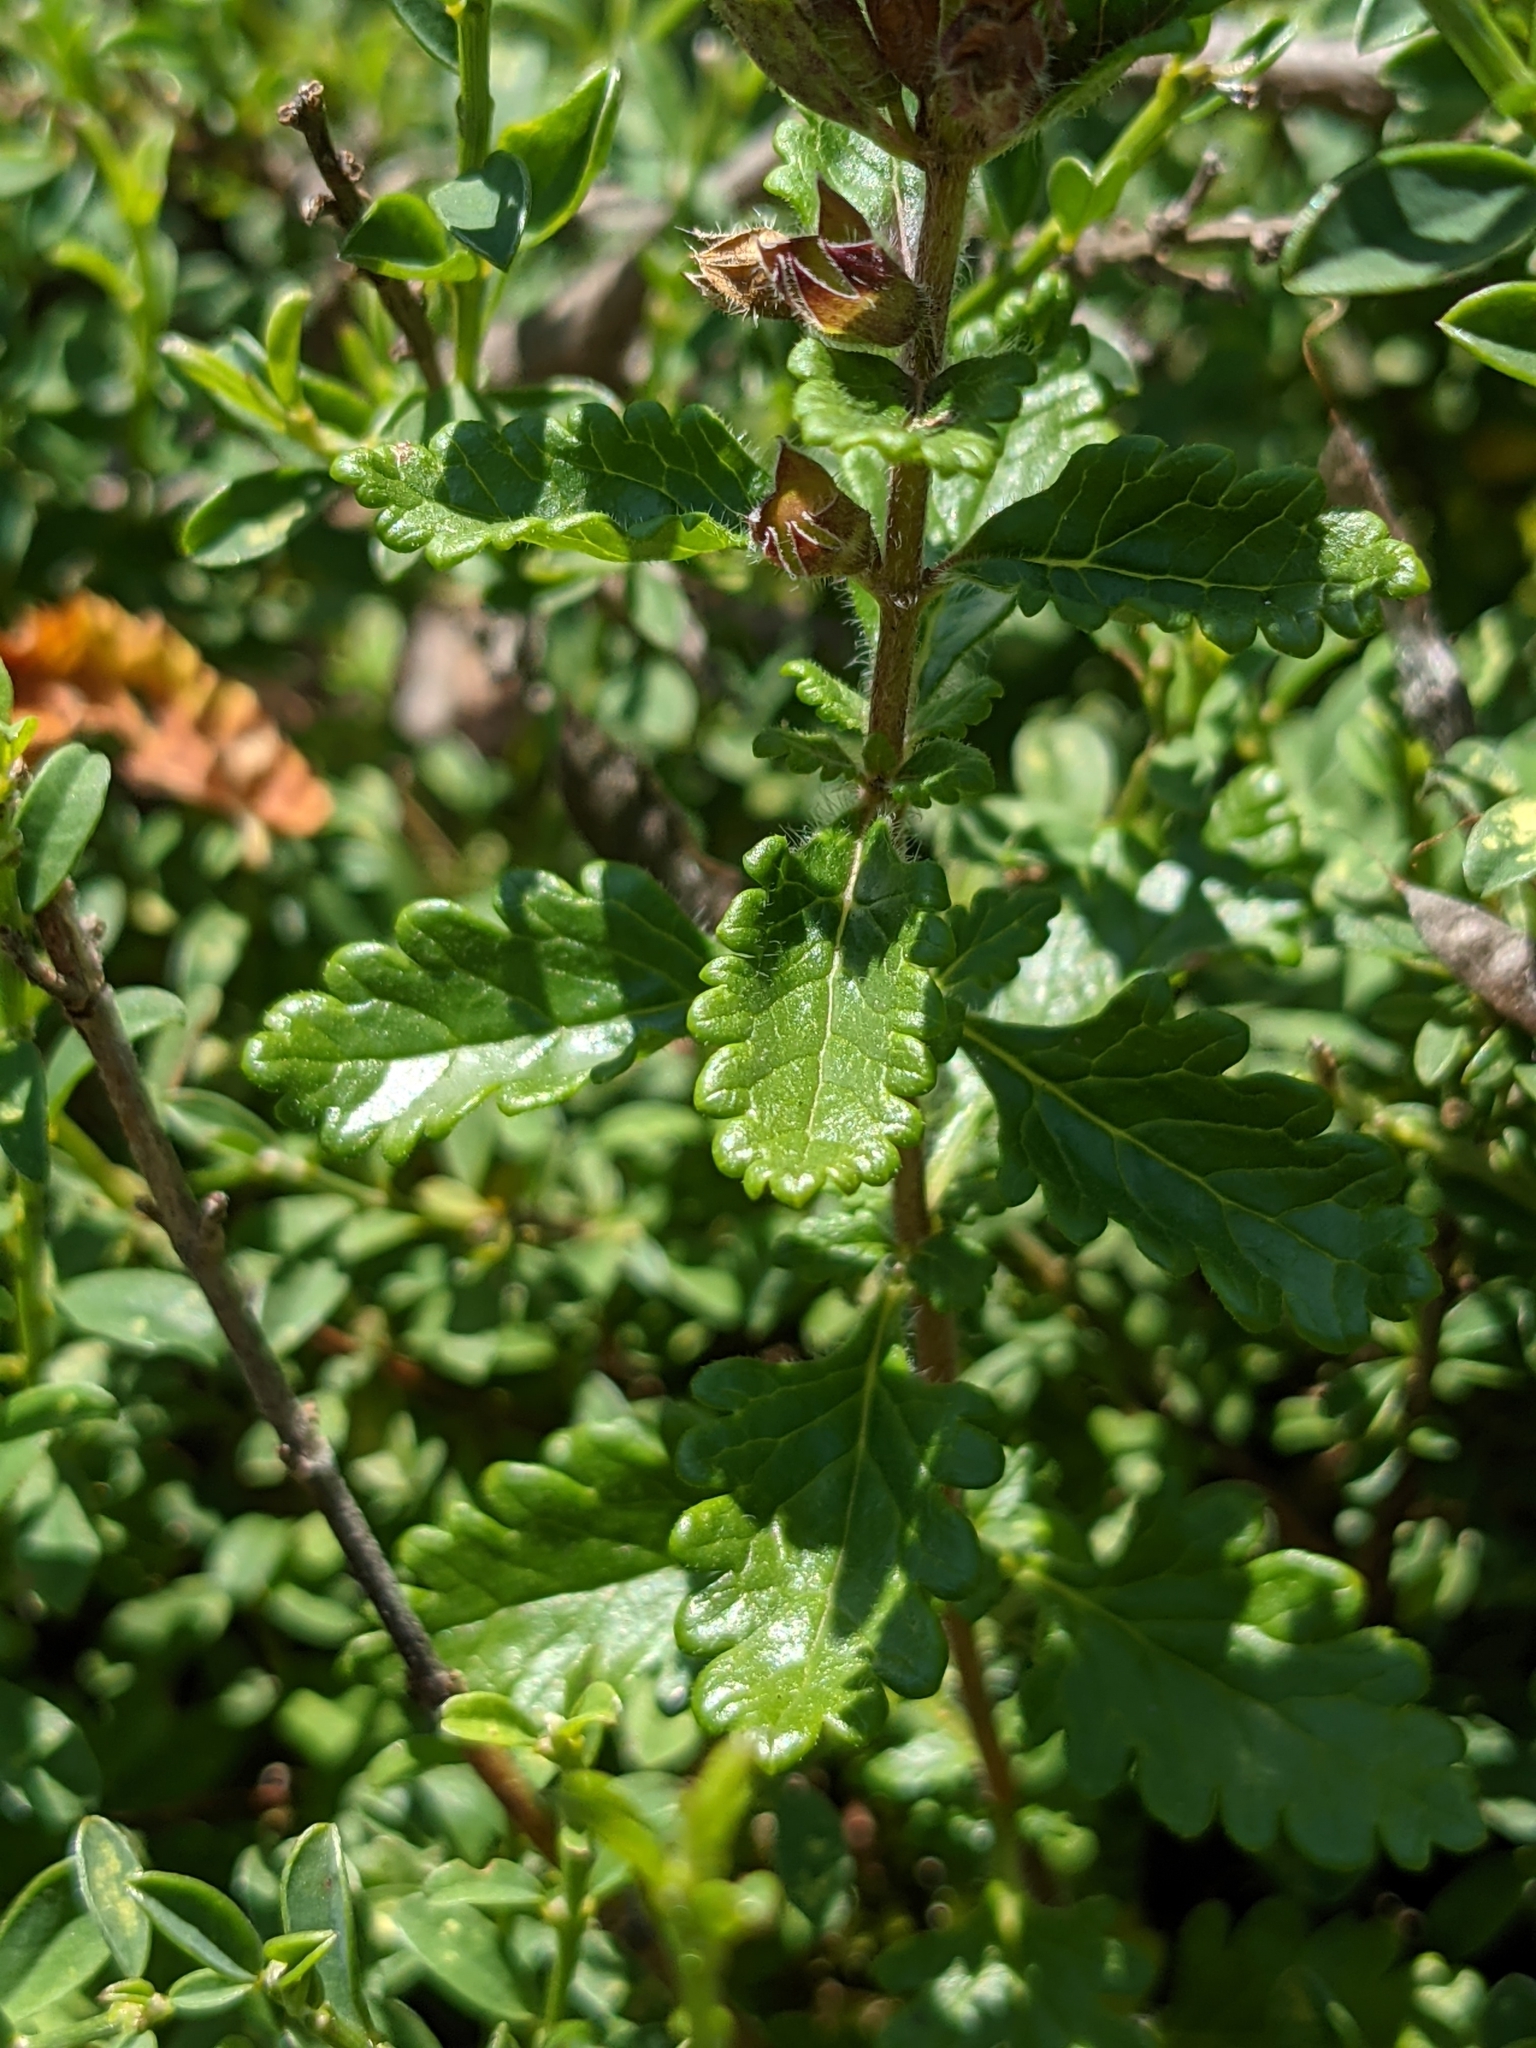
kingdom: Plantae
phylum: Tracheophyta
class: Magnoliopsida
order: Lamiales
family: Lamiaceae
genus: Teucrium
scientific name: Teucrium chamaedrys
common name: Wall germander
